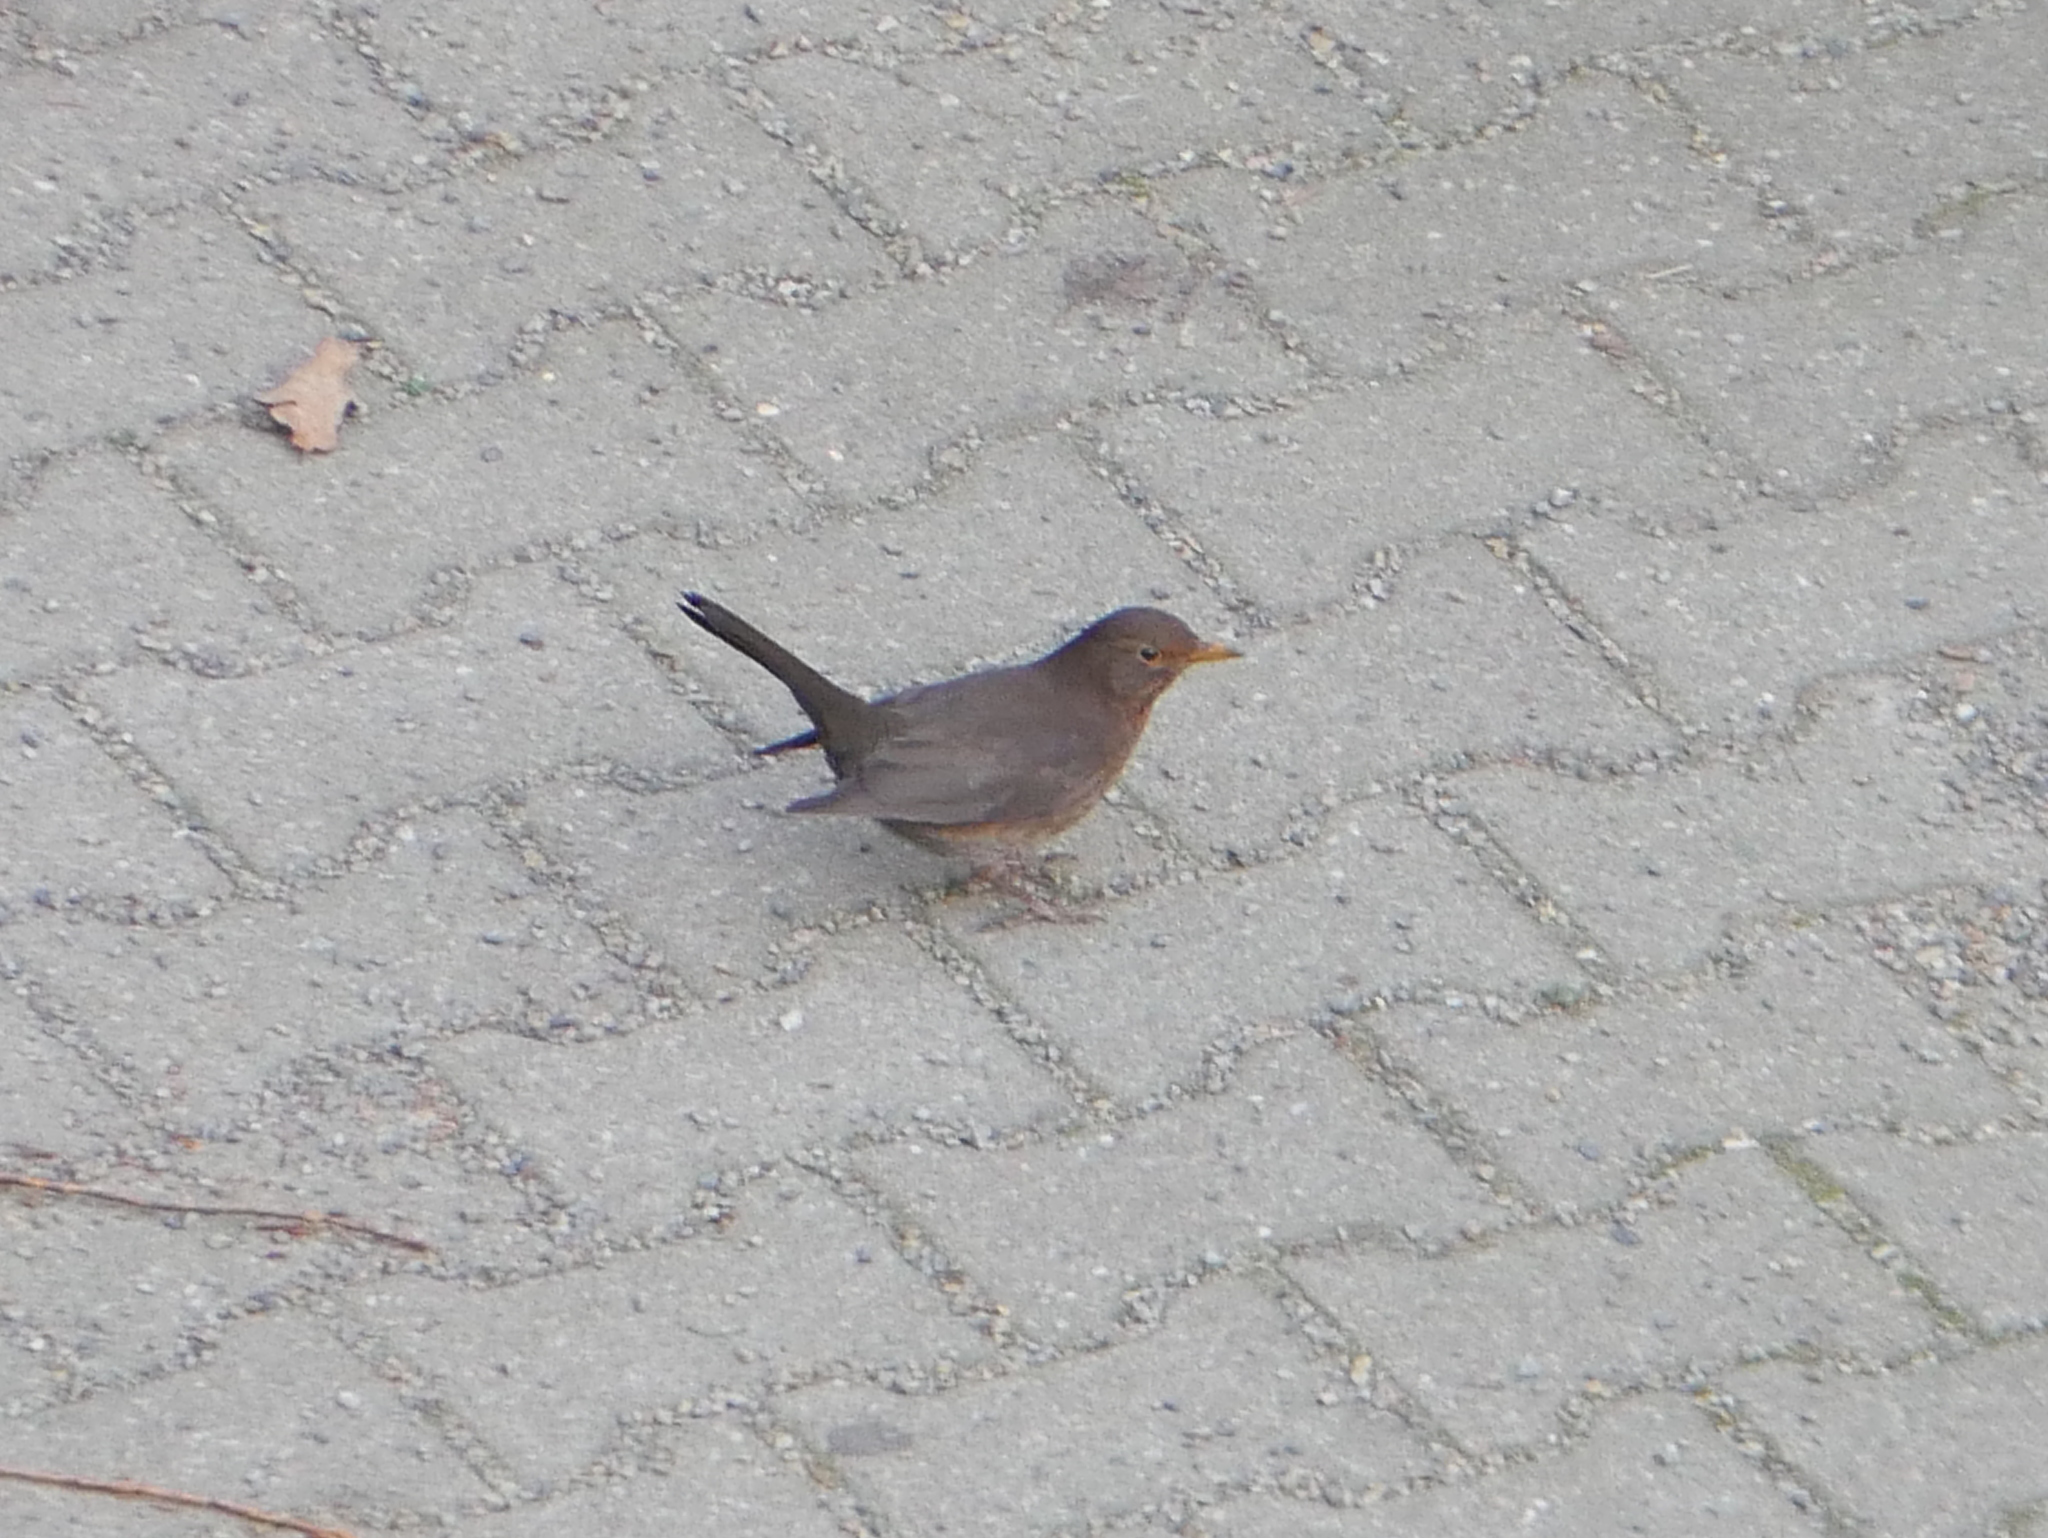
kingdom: Animalia
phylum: Chordata
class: Aves
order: Passeriformes
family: Turdidae
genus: Turdus
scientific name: Turdus merula
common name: Common blackbird
